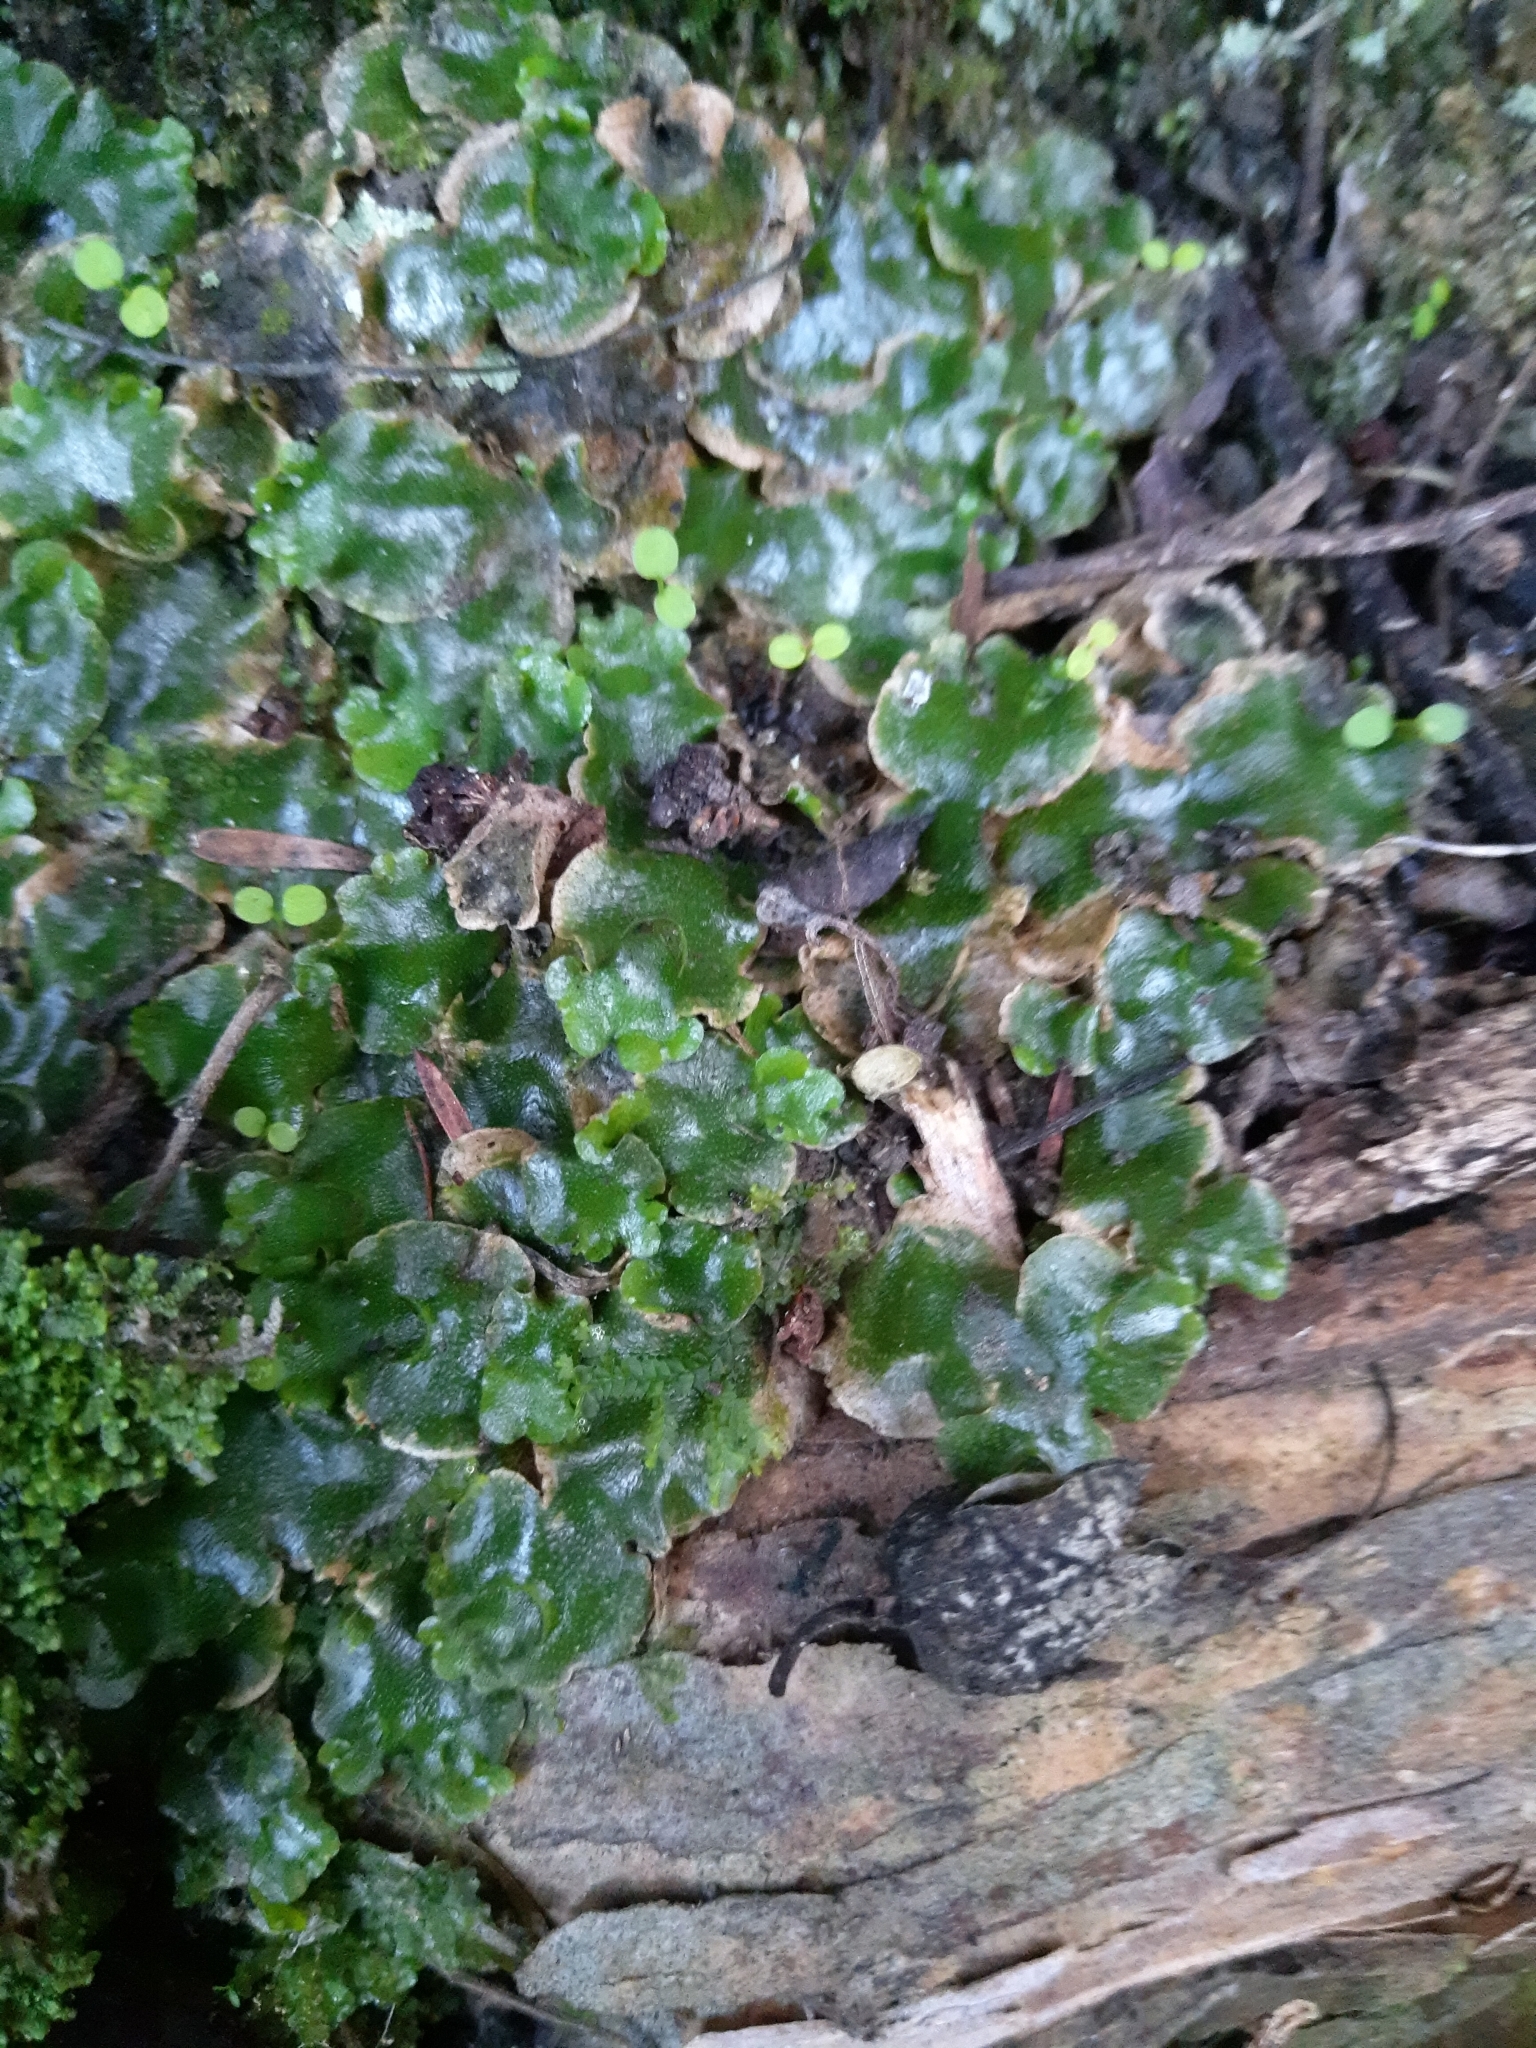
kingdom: Plantae
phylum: Marchantiophyta
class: Marchantiopsida
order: Lunulariales
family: Lunulariaceae
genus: Lunularia
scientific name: Lunularia cruciata
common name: Crescent-cup liverwort
